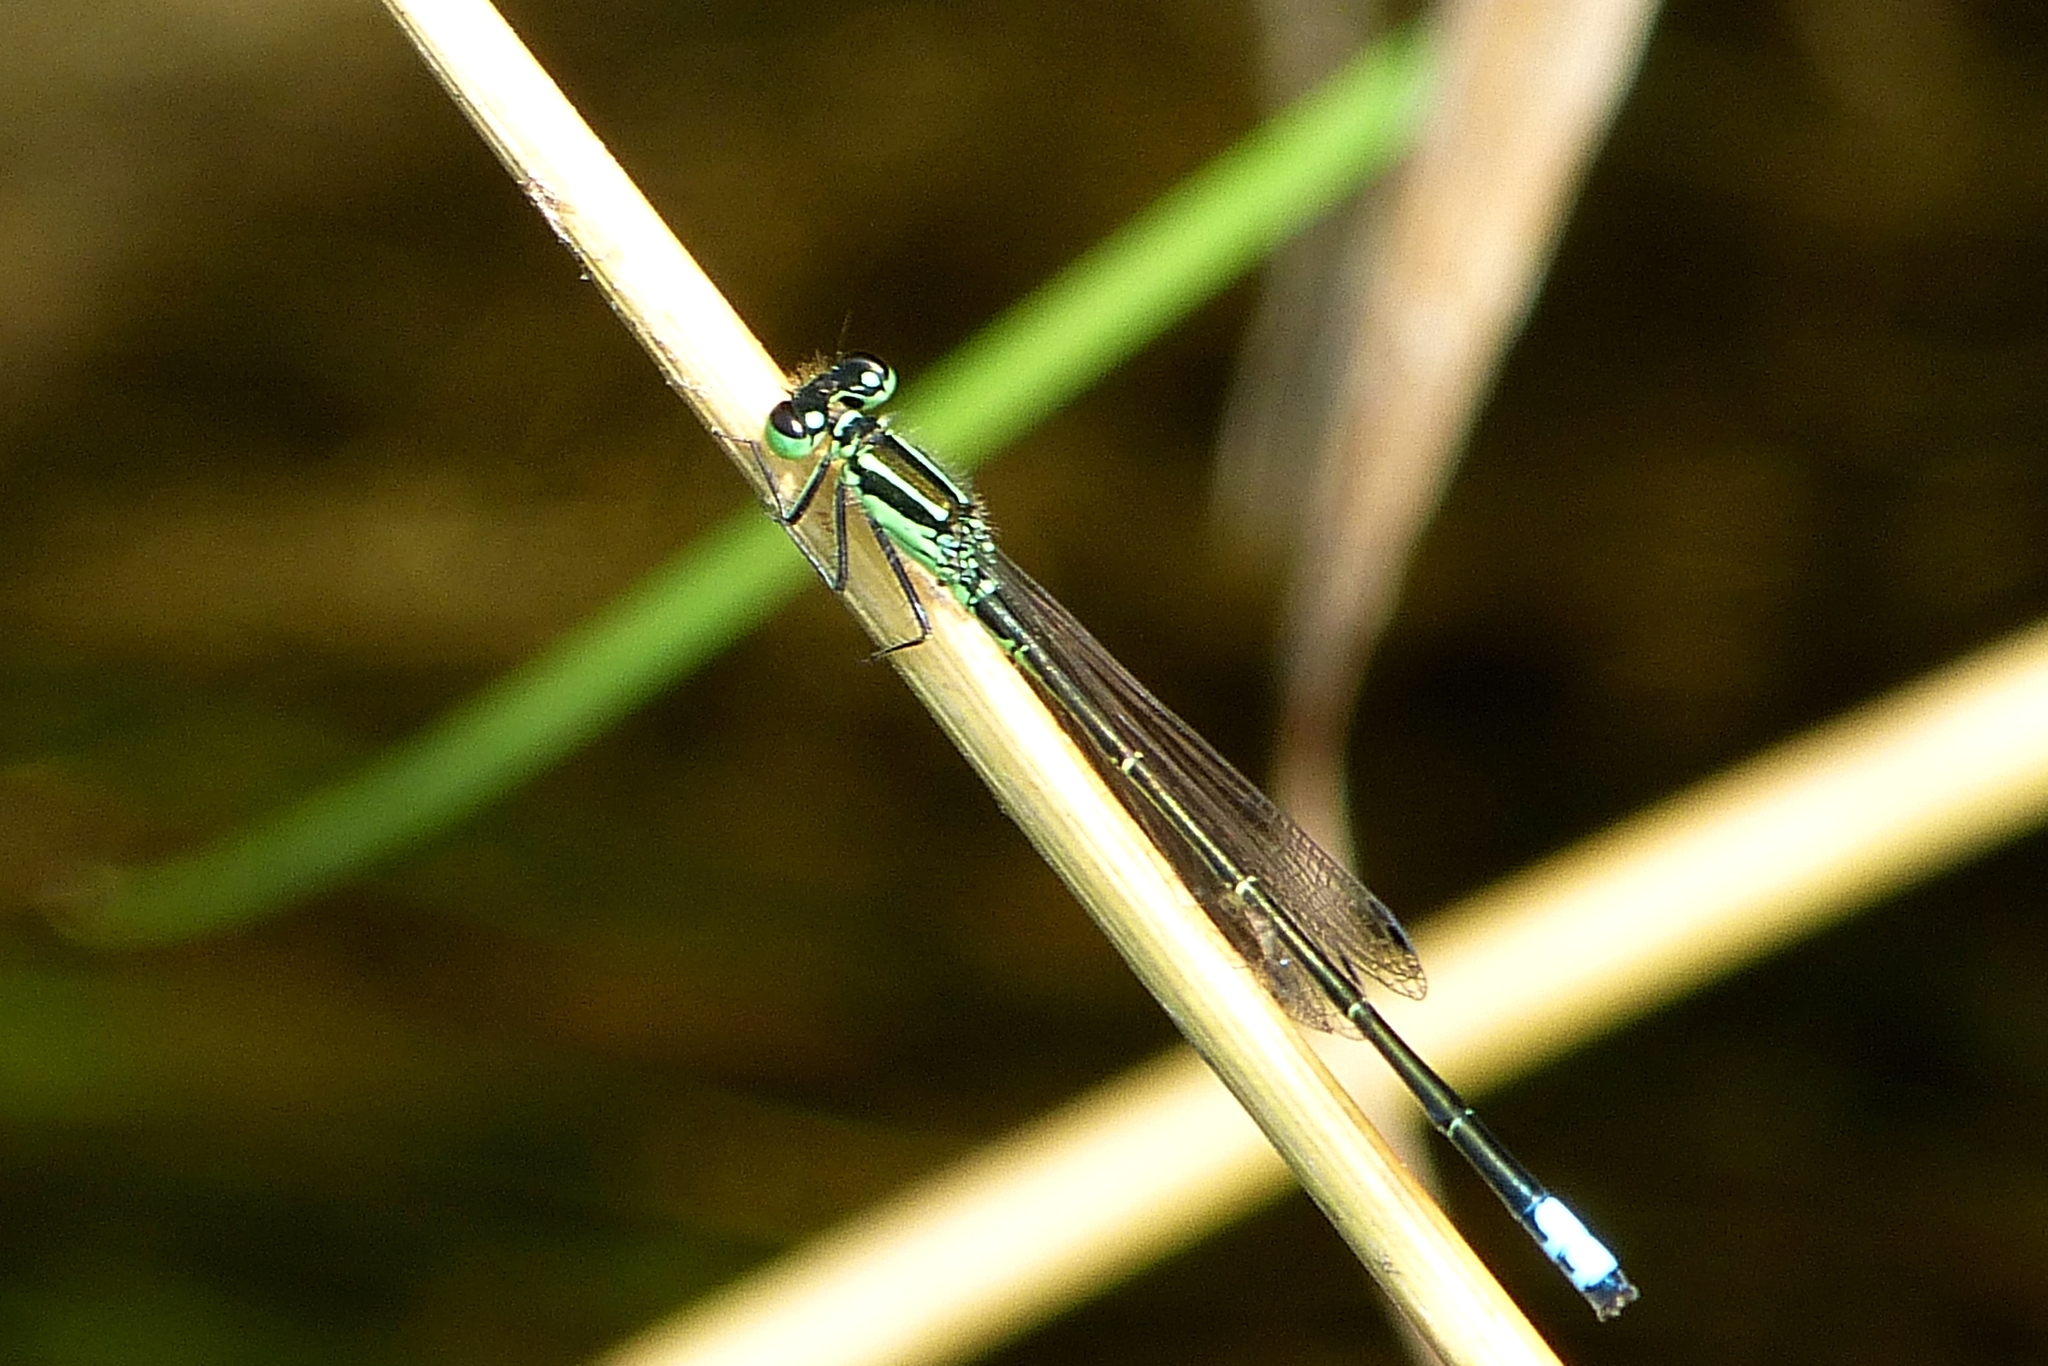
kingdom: Animalia
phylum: Arthropoda
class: Insecta
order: Odonata
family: Coenagrionidae
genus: Ischnura
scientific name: Ischnura verticalis
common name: Eastern forktail
